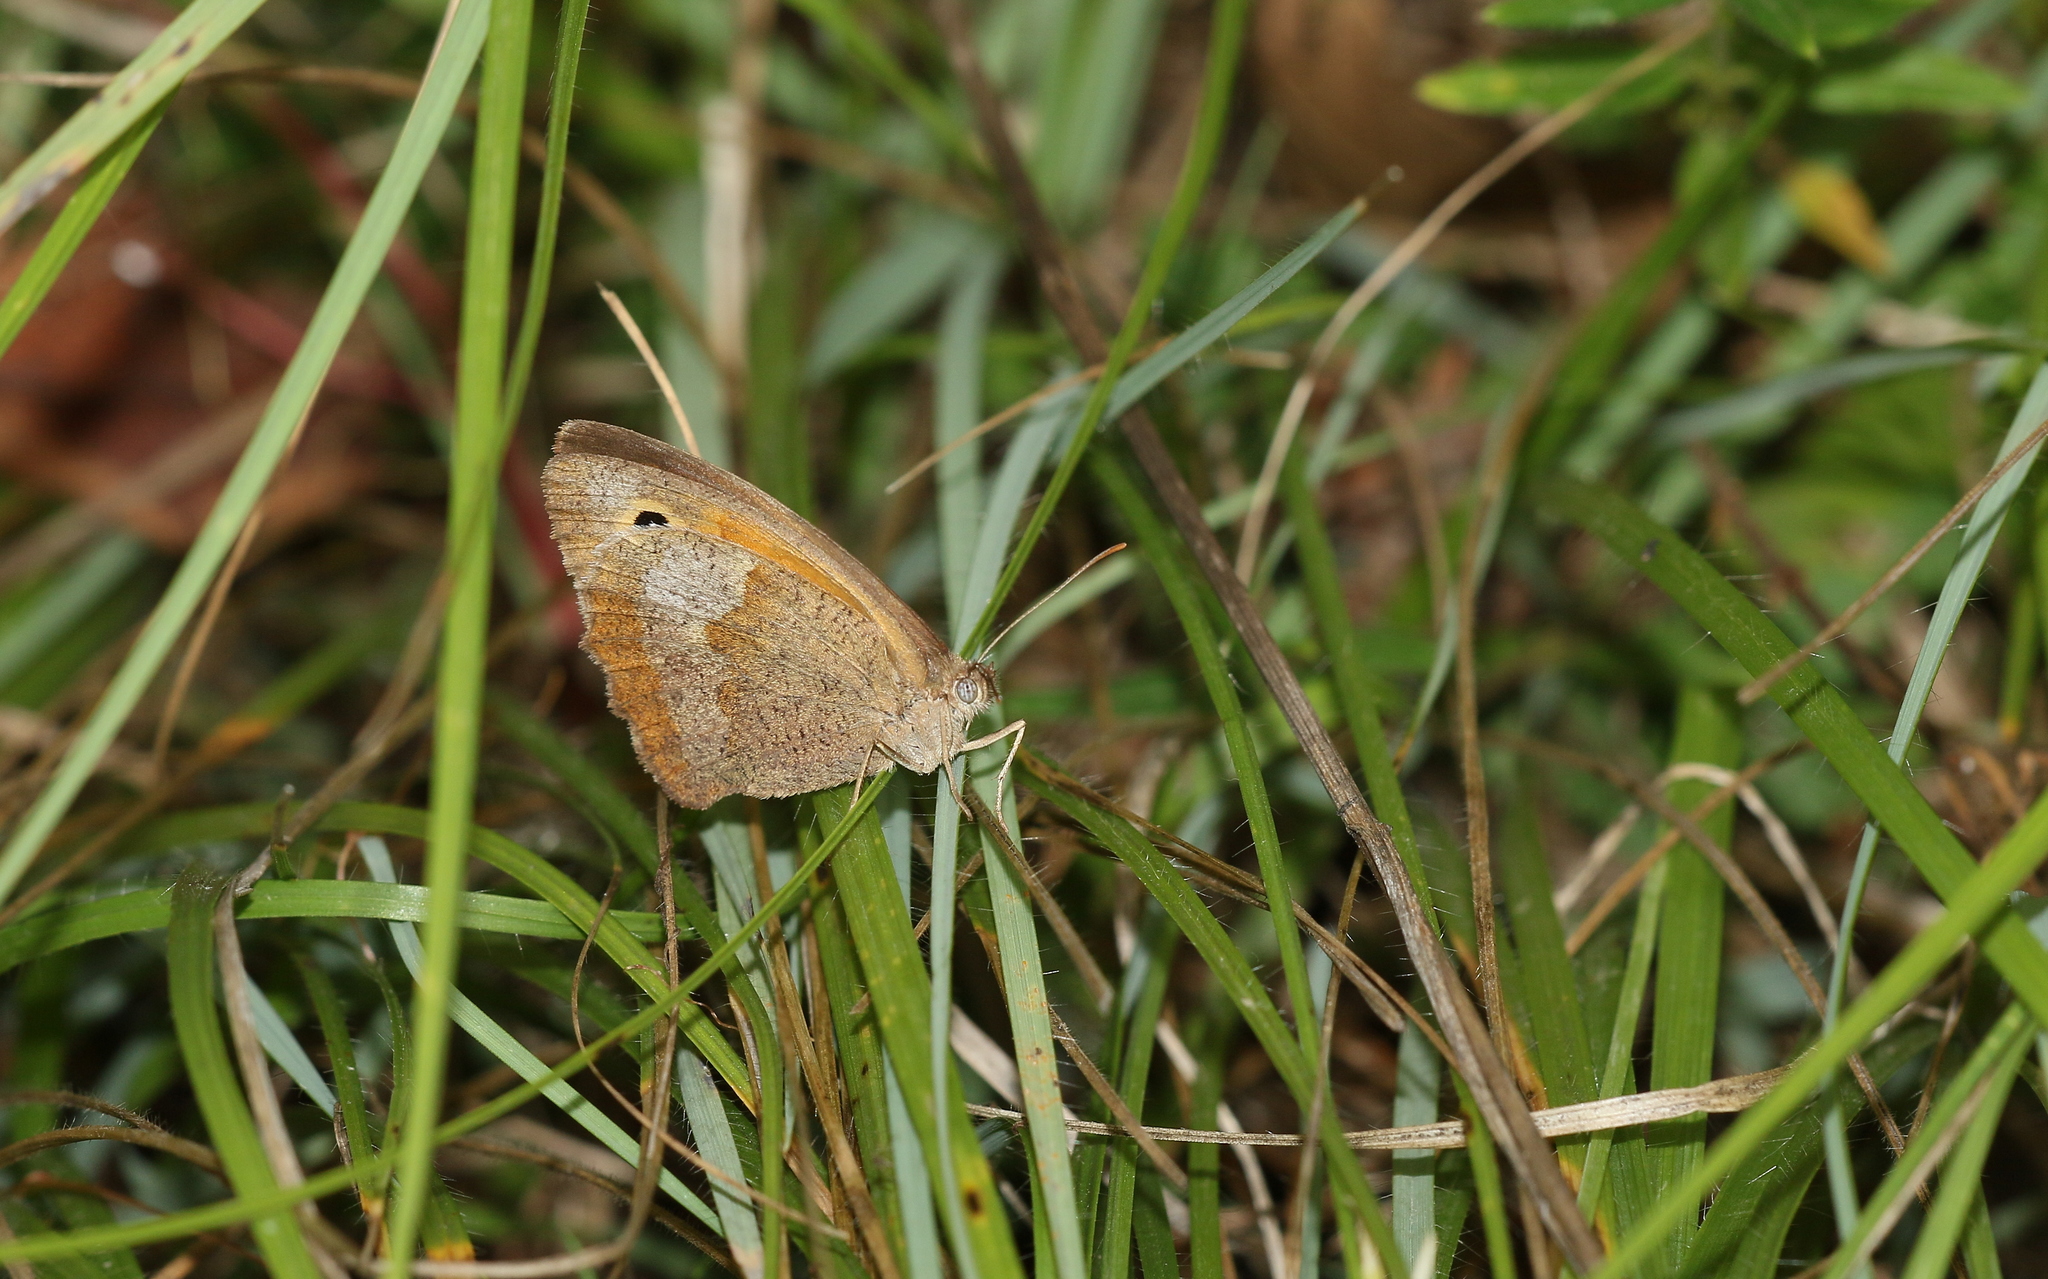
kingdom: Animalia
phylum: Arthropoda
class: Insecta
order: Lepidoptera
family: Nymphalidae
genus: Maniola
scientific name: Maniola jurtina
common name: Meadow brown
